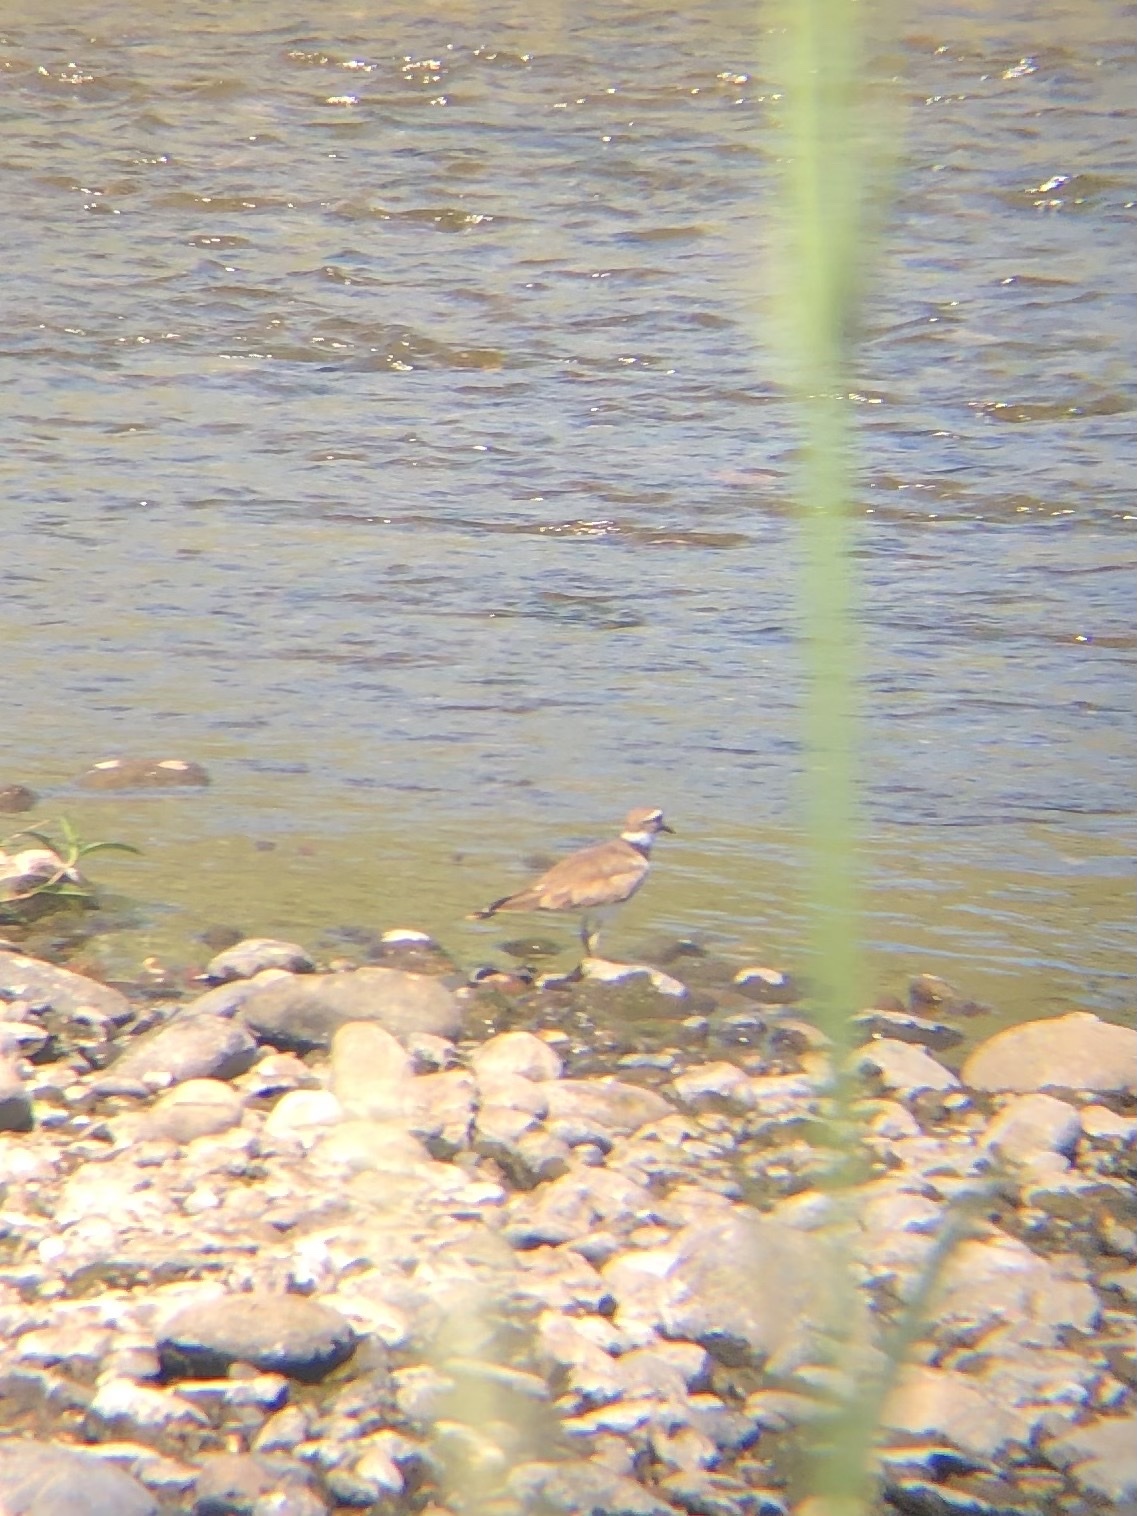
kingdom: Animalia
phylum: Chordata
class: Aves
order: Charadriiformes
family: Charadriidae
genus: Charadrius
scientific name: Charadrius vociferus
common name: Killdeer
